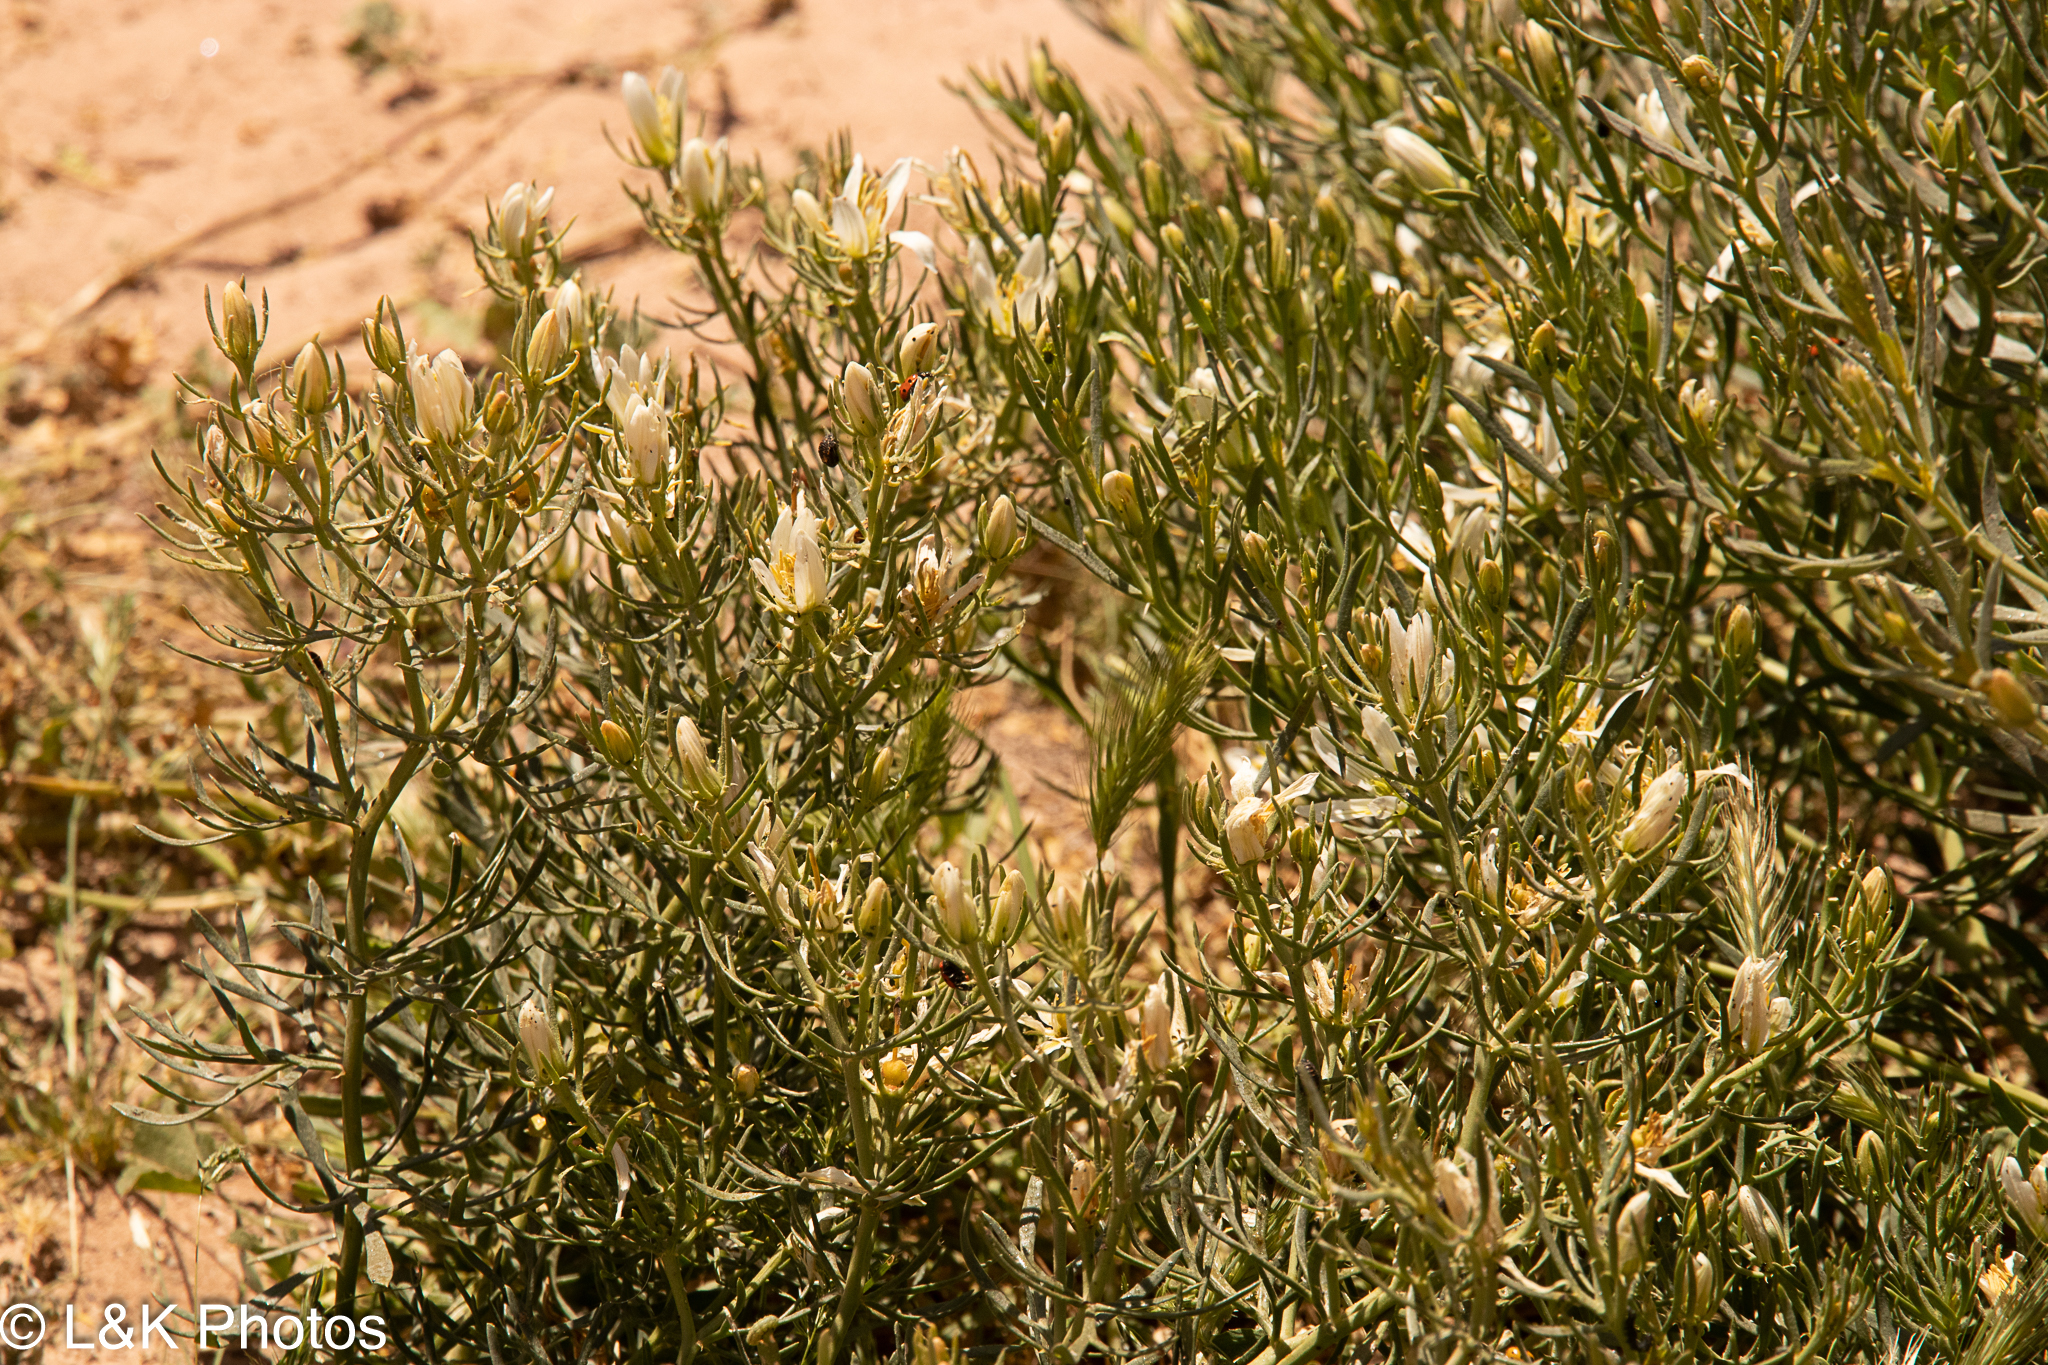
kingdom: Plantae
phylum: Tracheophyta
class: Magnoliopsida
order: Sapindales
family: Tetradiclidaceae
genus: Peganum
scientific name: Peganum harmala
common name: Harmal peganum
